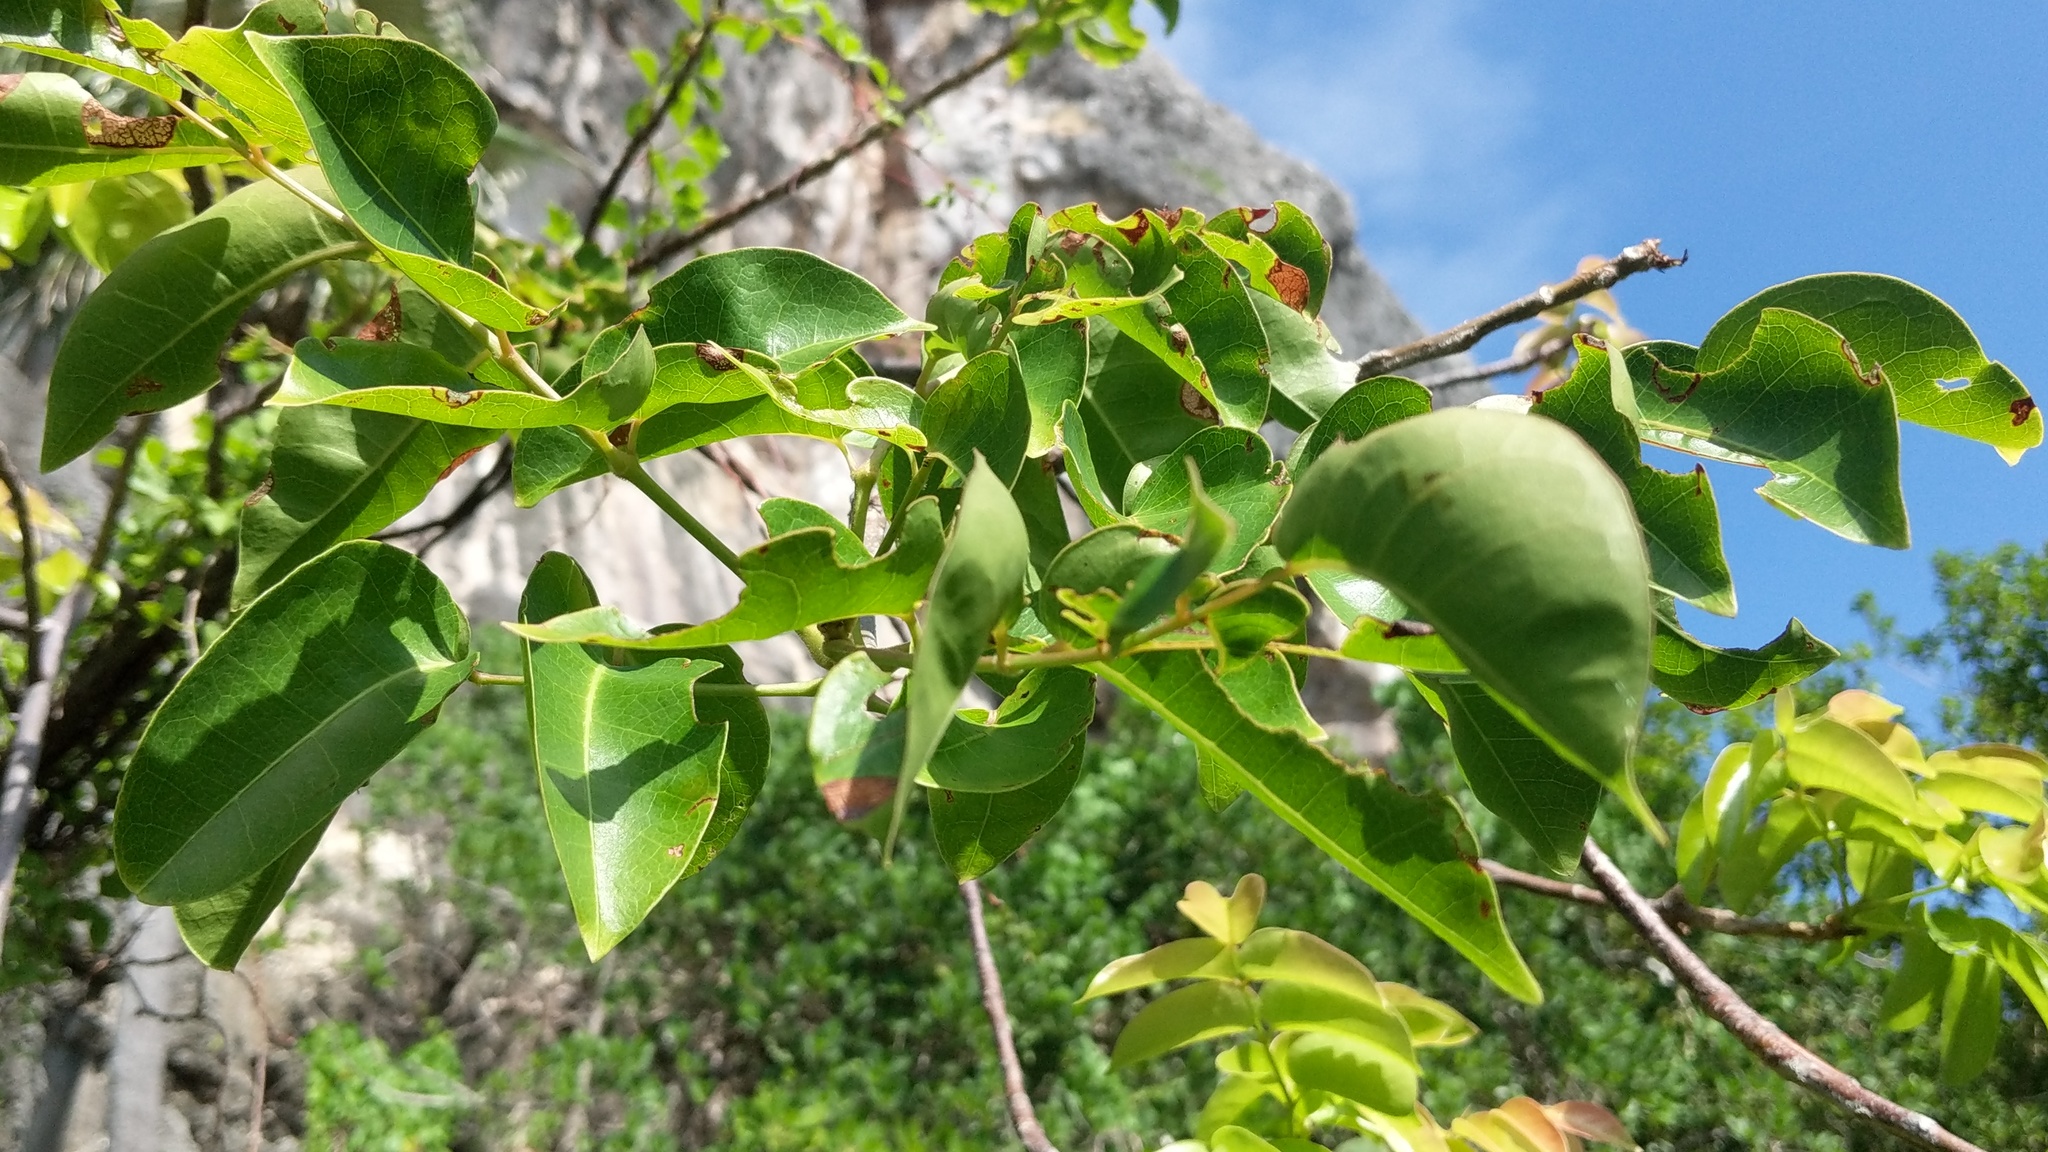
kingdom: Plantae
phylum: Tracheophyta
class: Magnoliopsida
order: Sapindales
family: Burseraceae
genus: Bursera
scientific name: Bursera simaruba
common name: Turpentine tree
